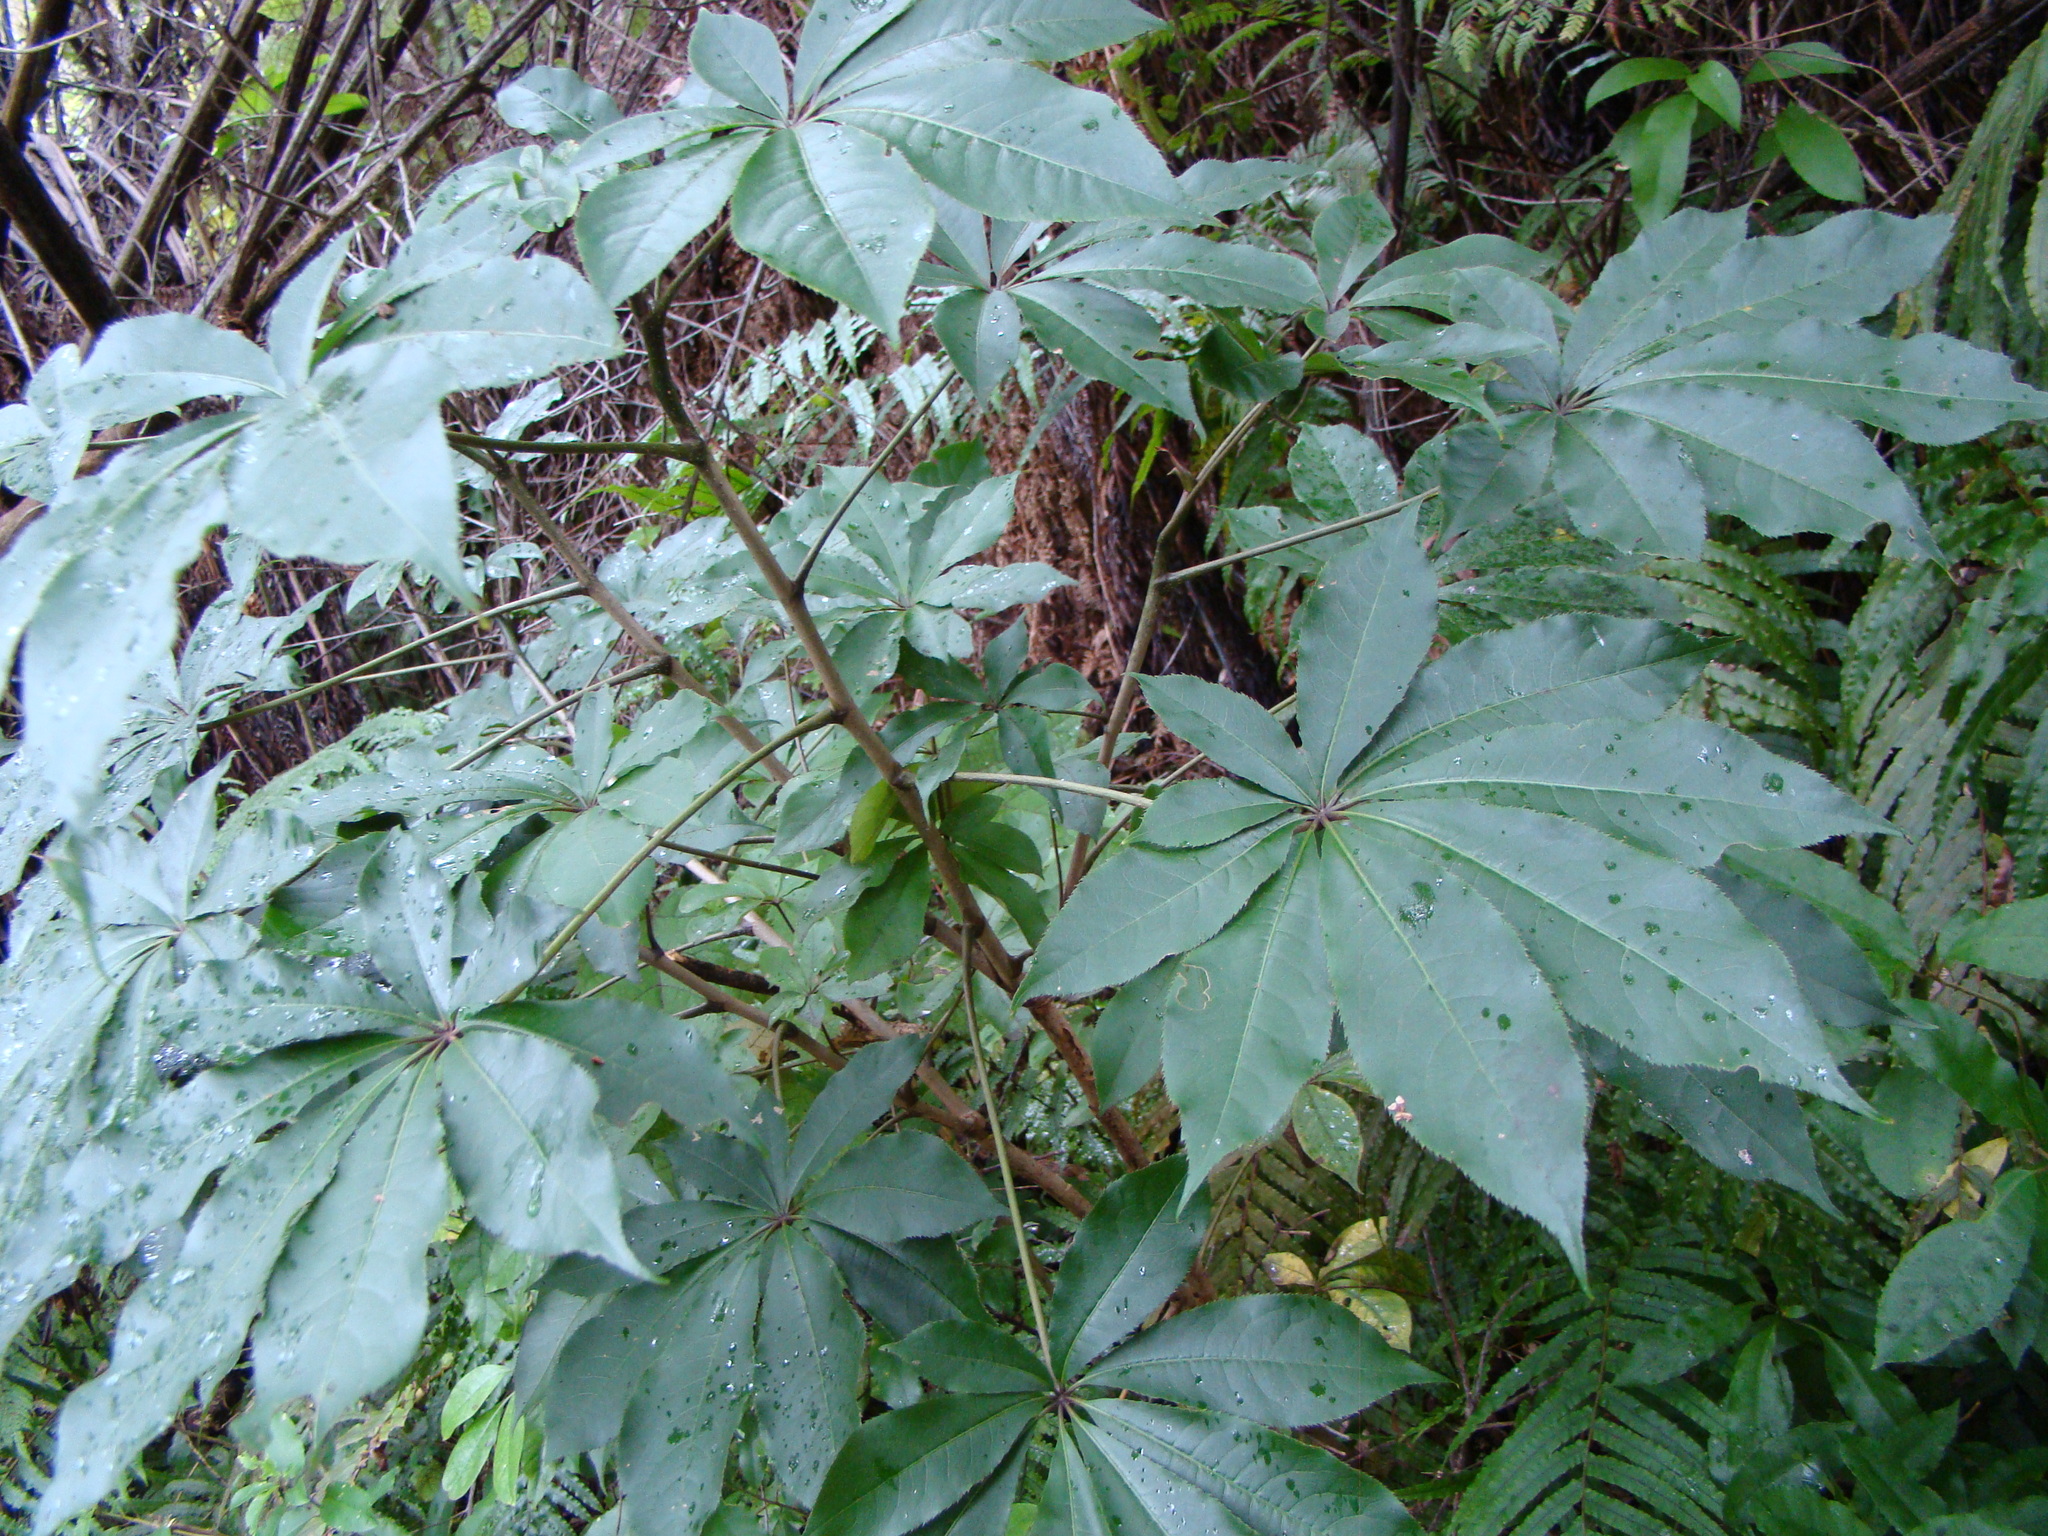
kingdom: Plantae
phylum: Tracheophyta
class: Magnoliopsida
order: Apiales
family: Araliaceae
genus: Schefflera
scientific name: Schefflera digitata
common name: Pate
